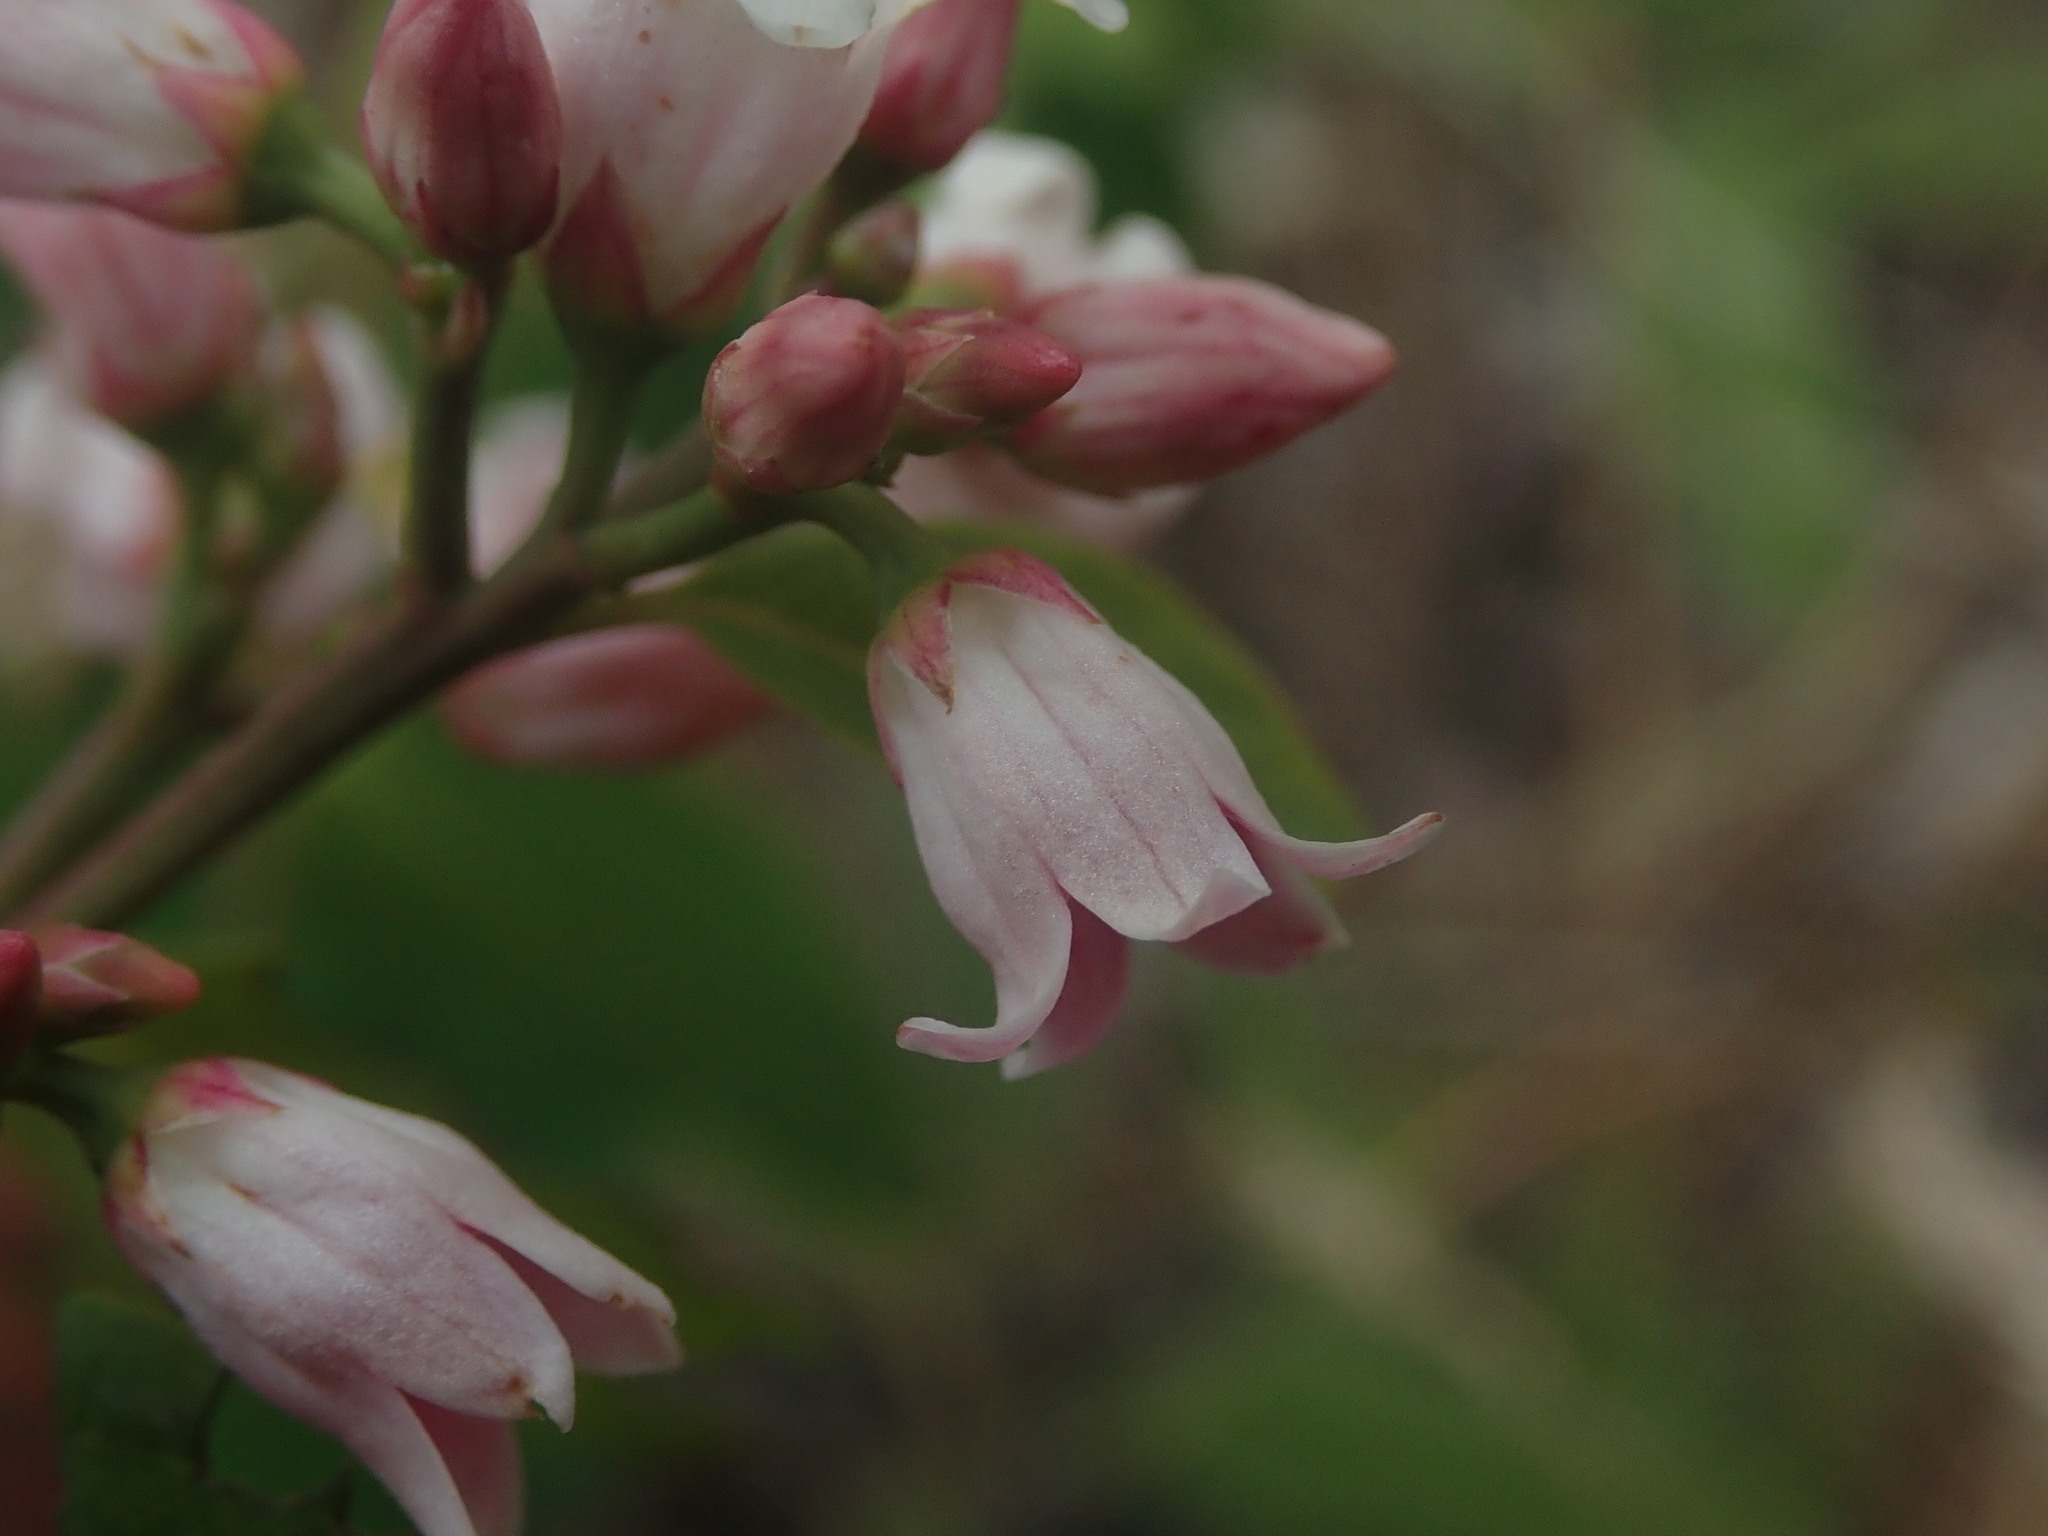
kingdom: Plantae
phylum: Tracheophyta
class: Magnoliopsida
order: Gentianales
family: Apocynaceae
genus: Apocynum
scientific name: Apocynum androsaemifolium
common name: Spreading dogbane
